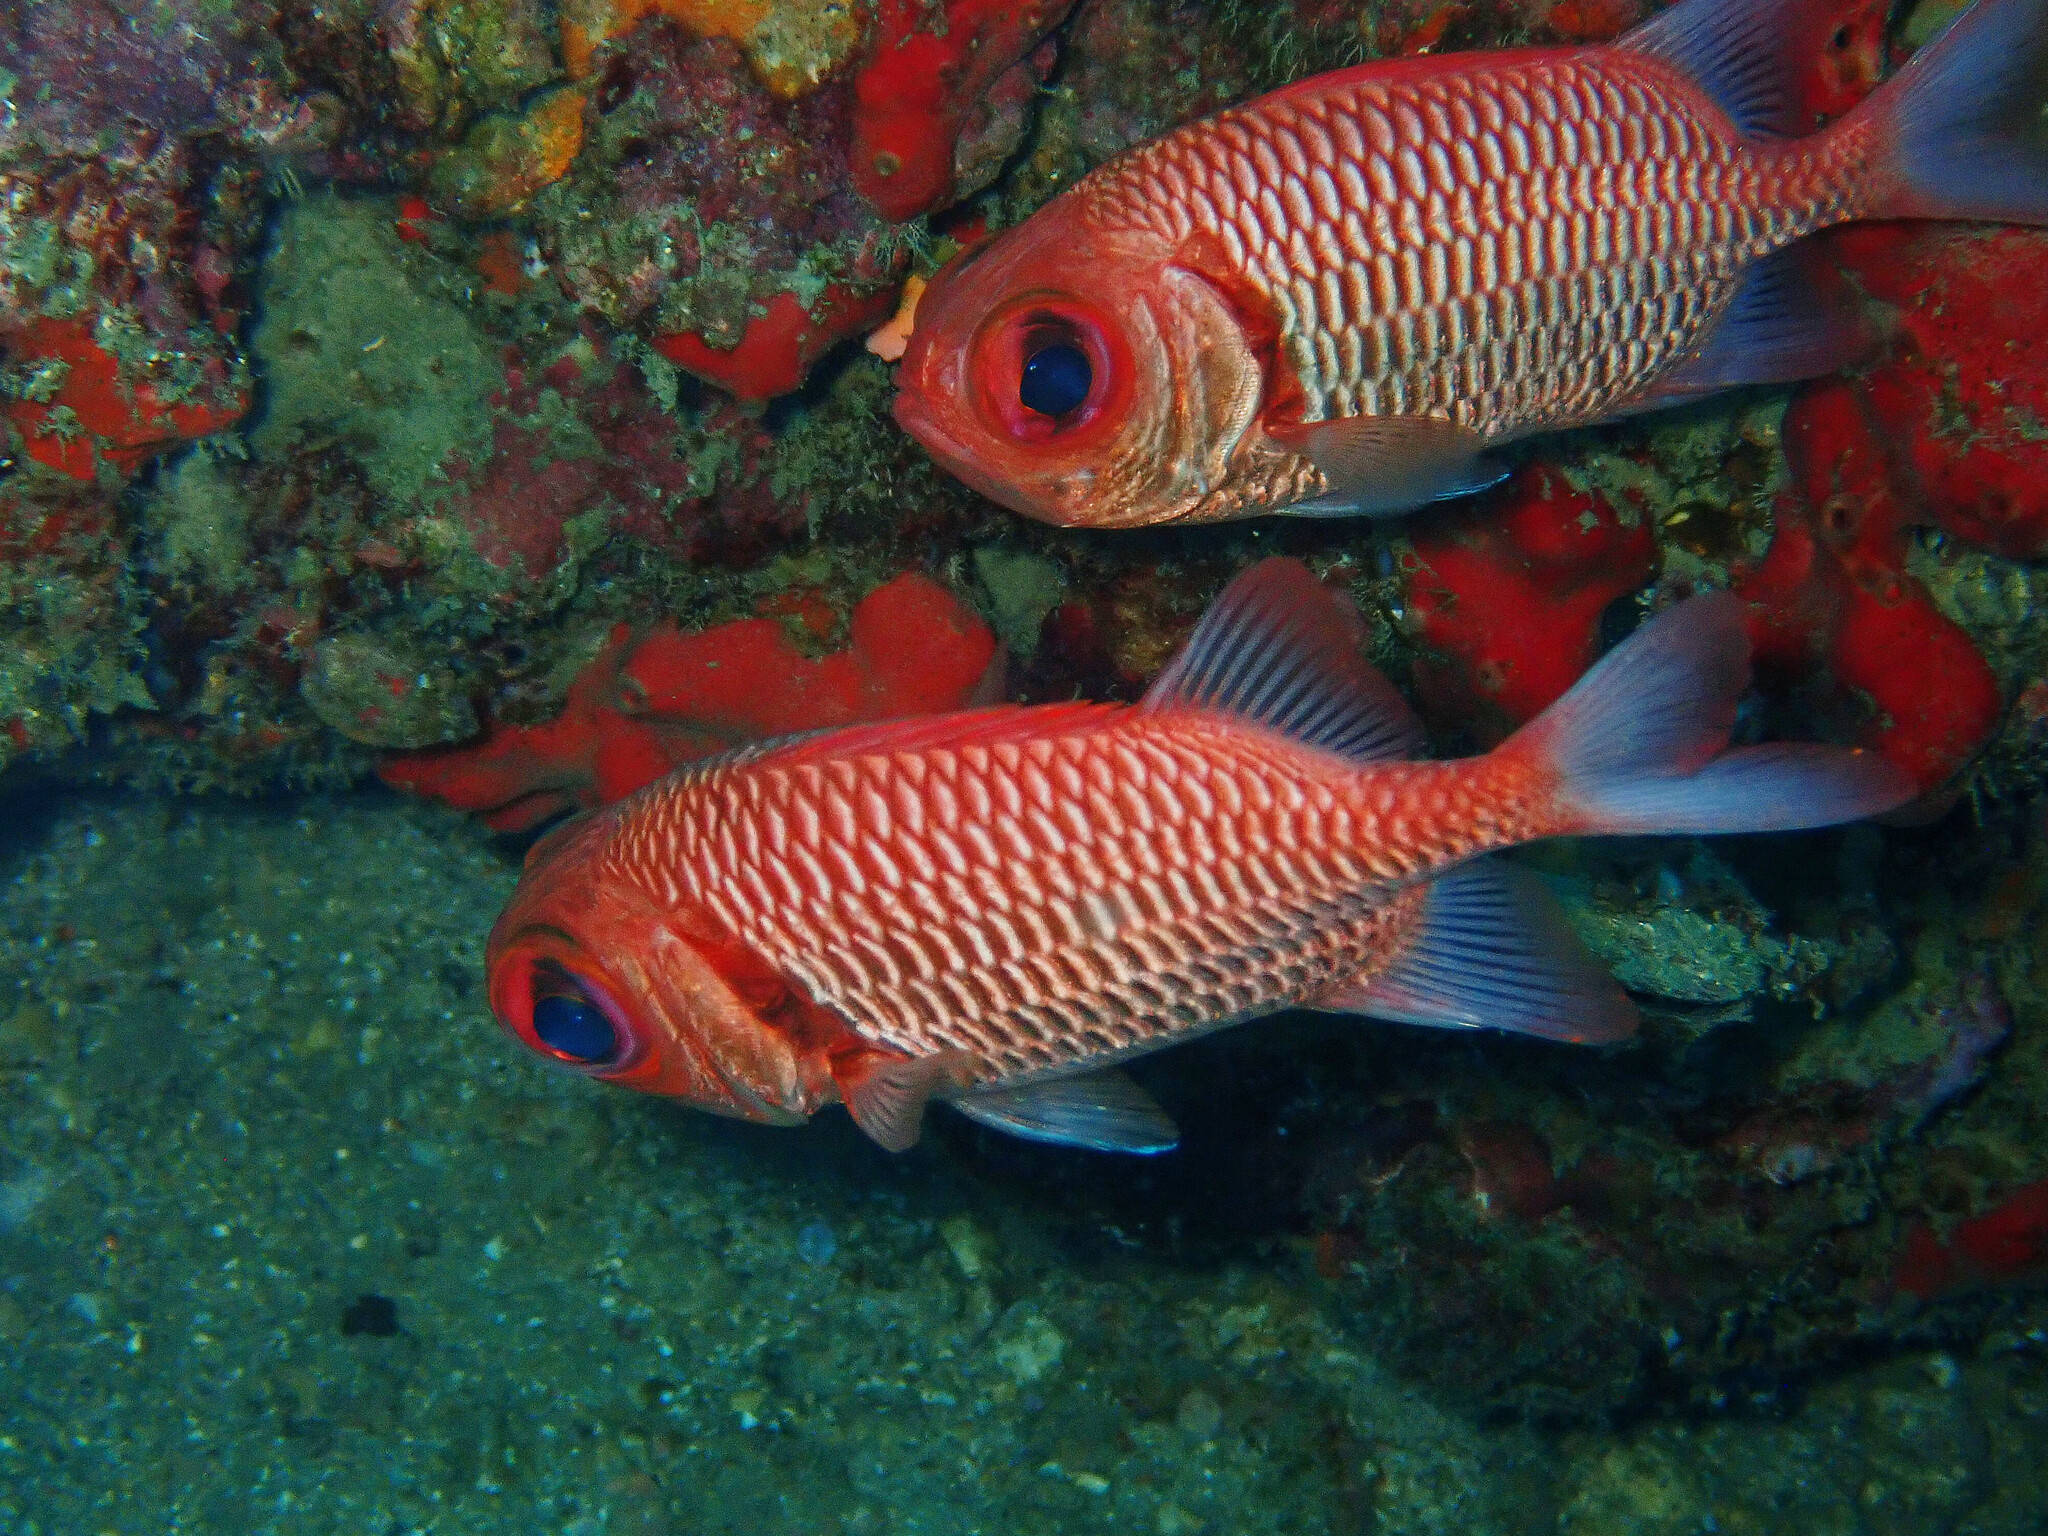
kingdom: Animalia
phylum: Chordata
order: Beryciformes
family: Holocentridae
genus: Myripristis
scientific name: Myripristis hexagona
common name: Blacktip soldierfish
